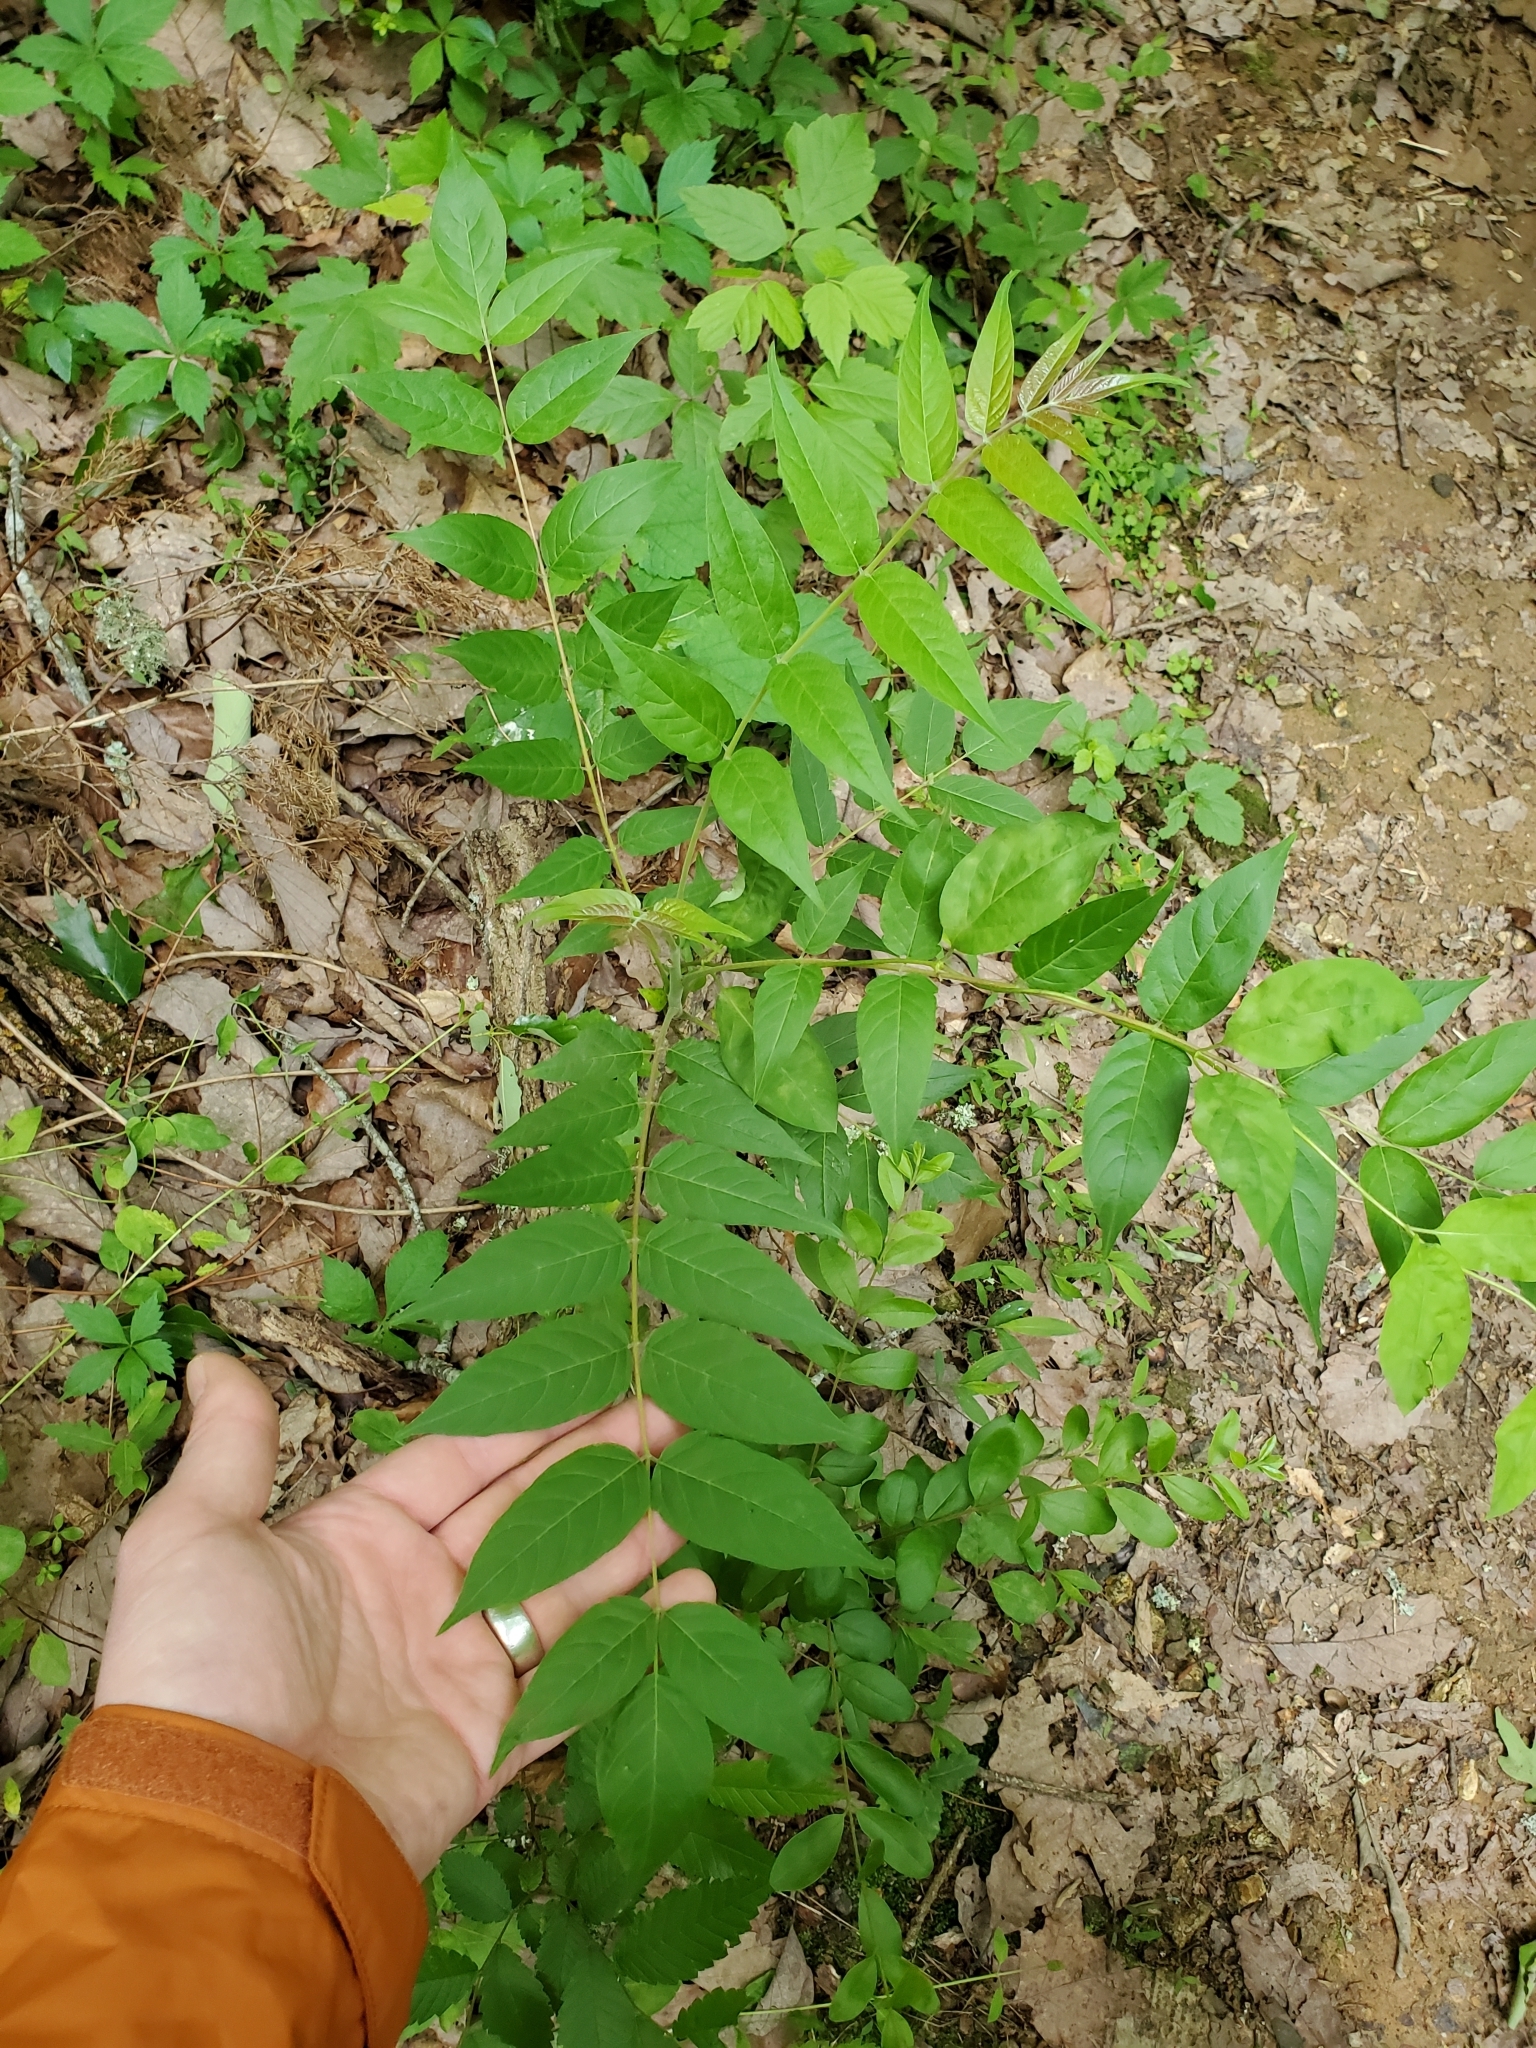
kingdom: Plantae
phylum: Tracheophyta
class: Magnoliopsida
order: Sapindales
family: Simaroubaceae
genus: Ailanthus
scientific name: Ailanthus altissima
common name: Tree-of-heaven
